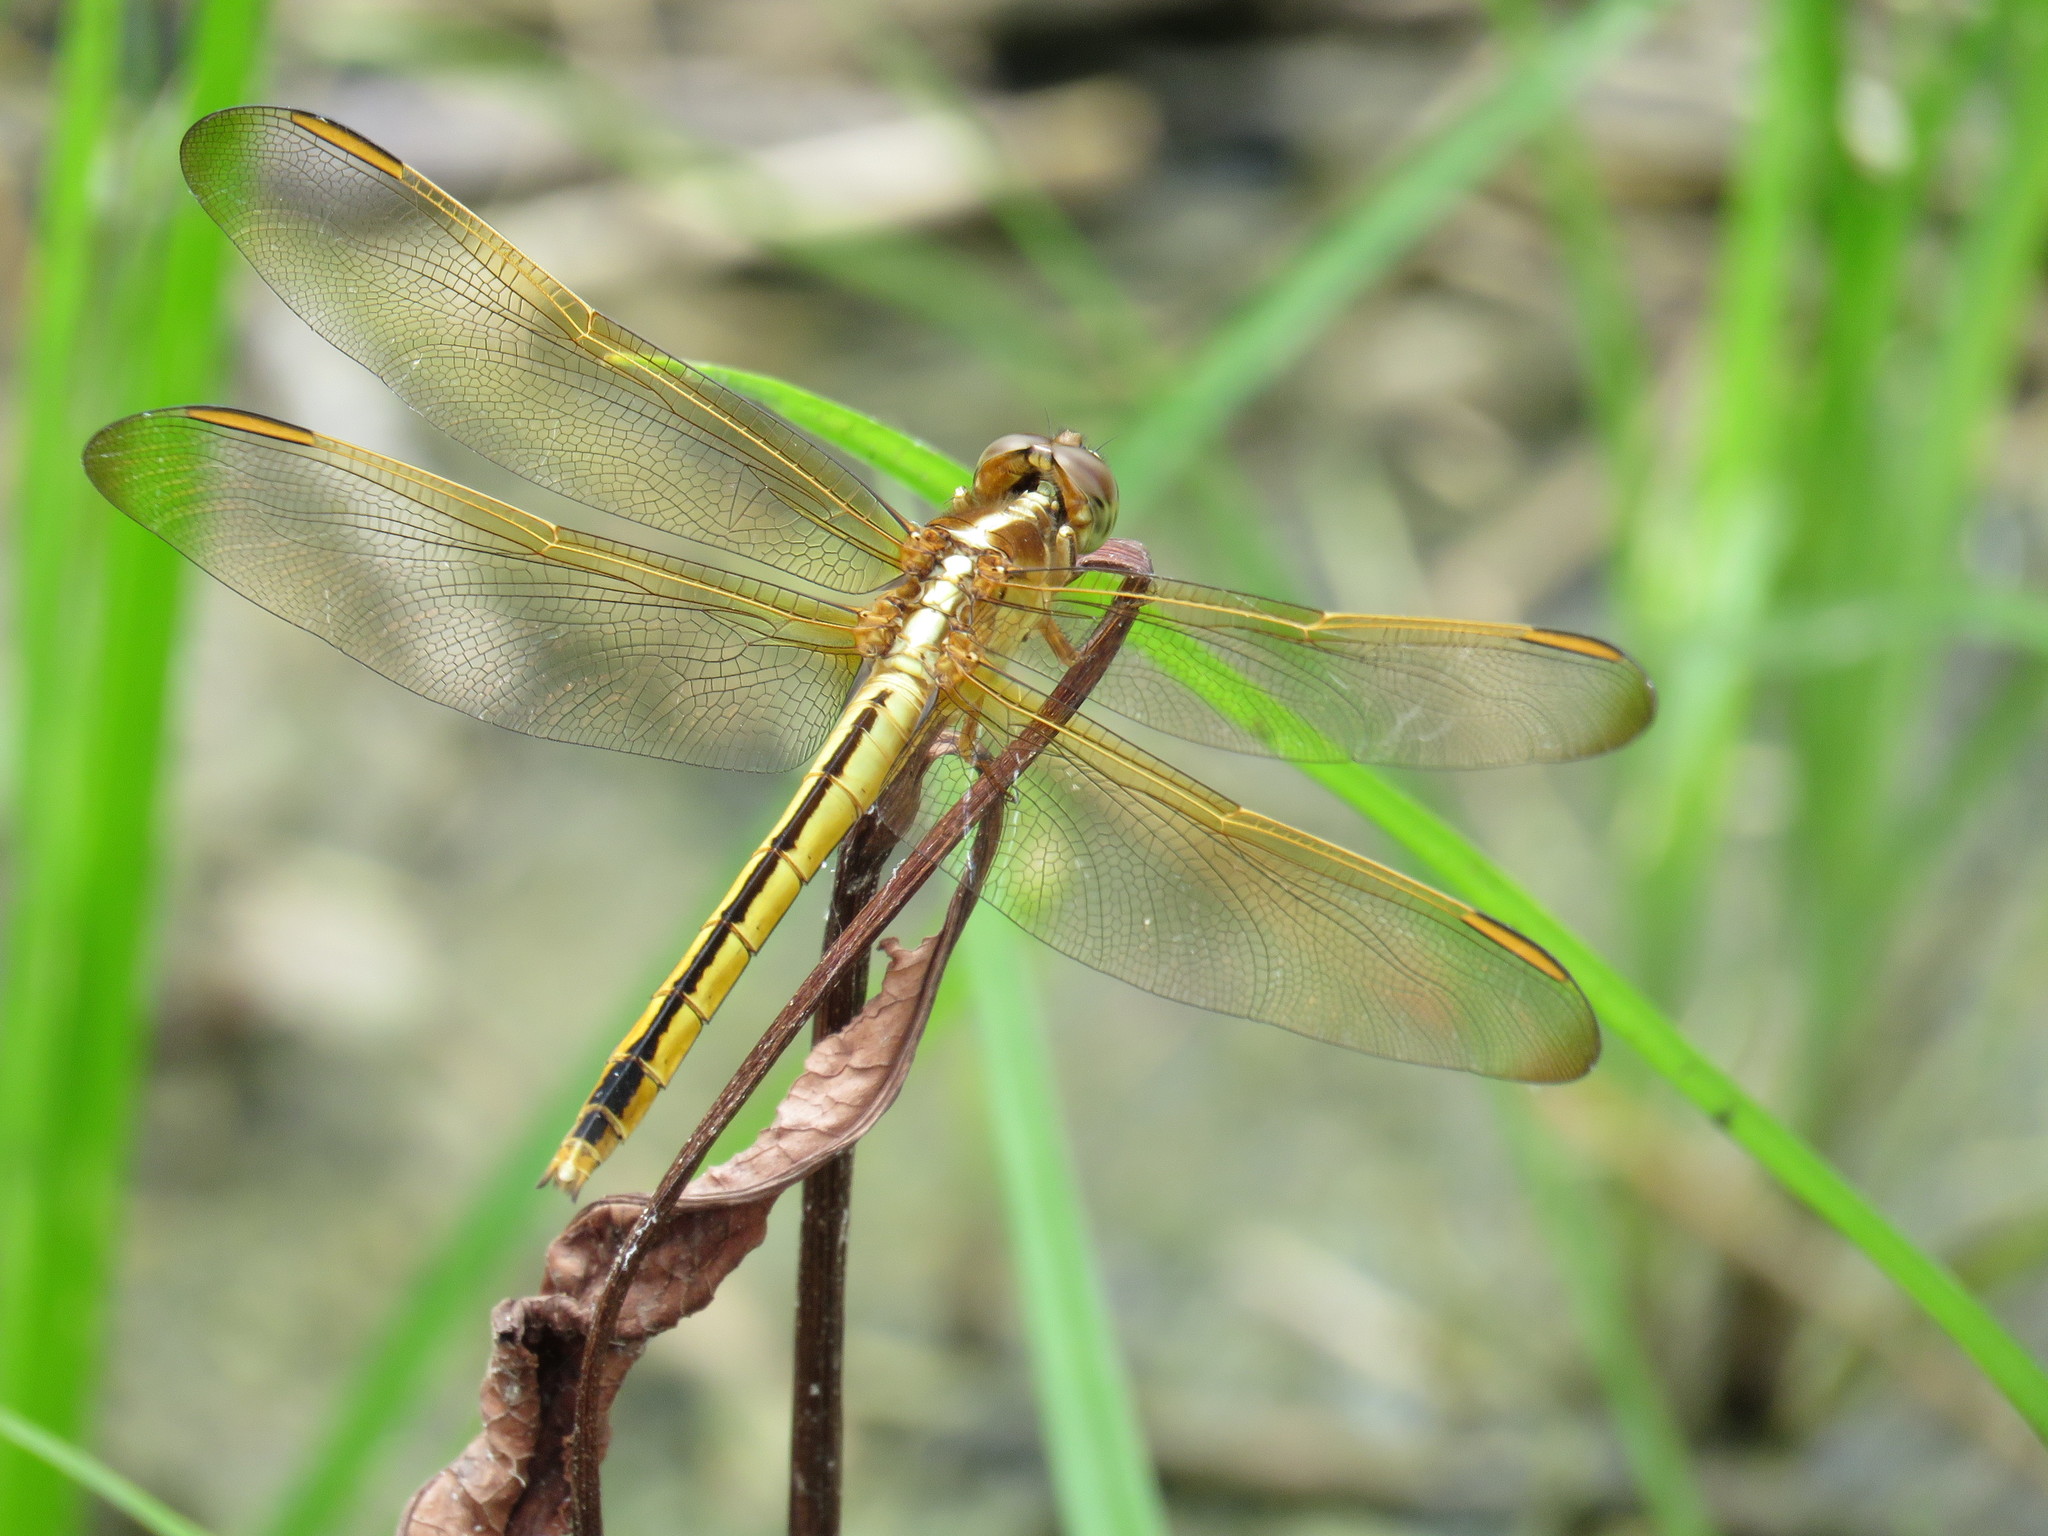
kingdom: Animalia
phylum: Arthropoda
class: Insecta
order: Odonata
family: Libellulidae
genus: Libellula
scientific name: Libellula needhami
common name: Needham's skimmer
